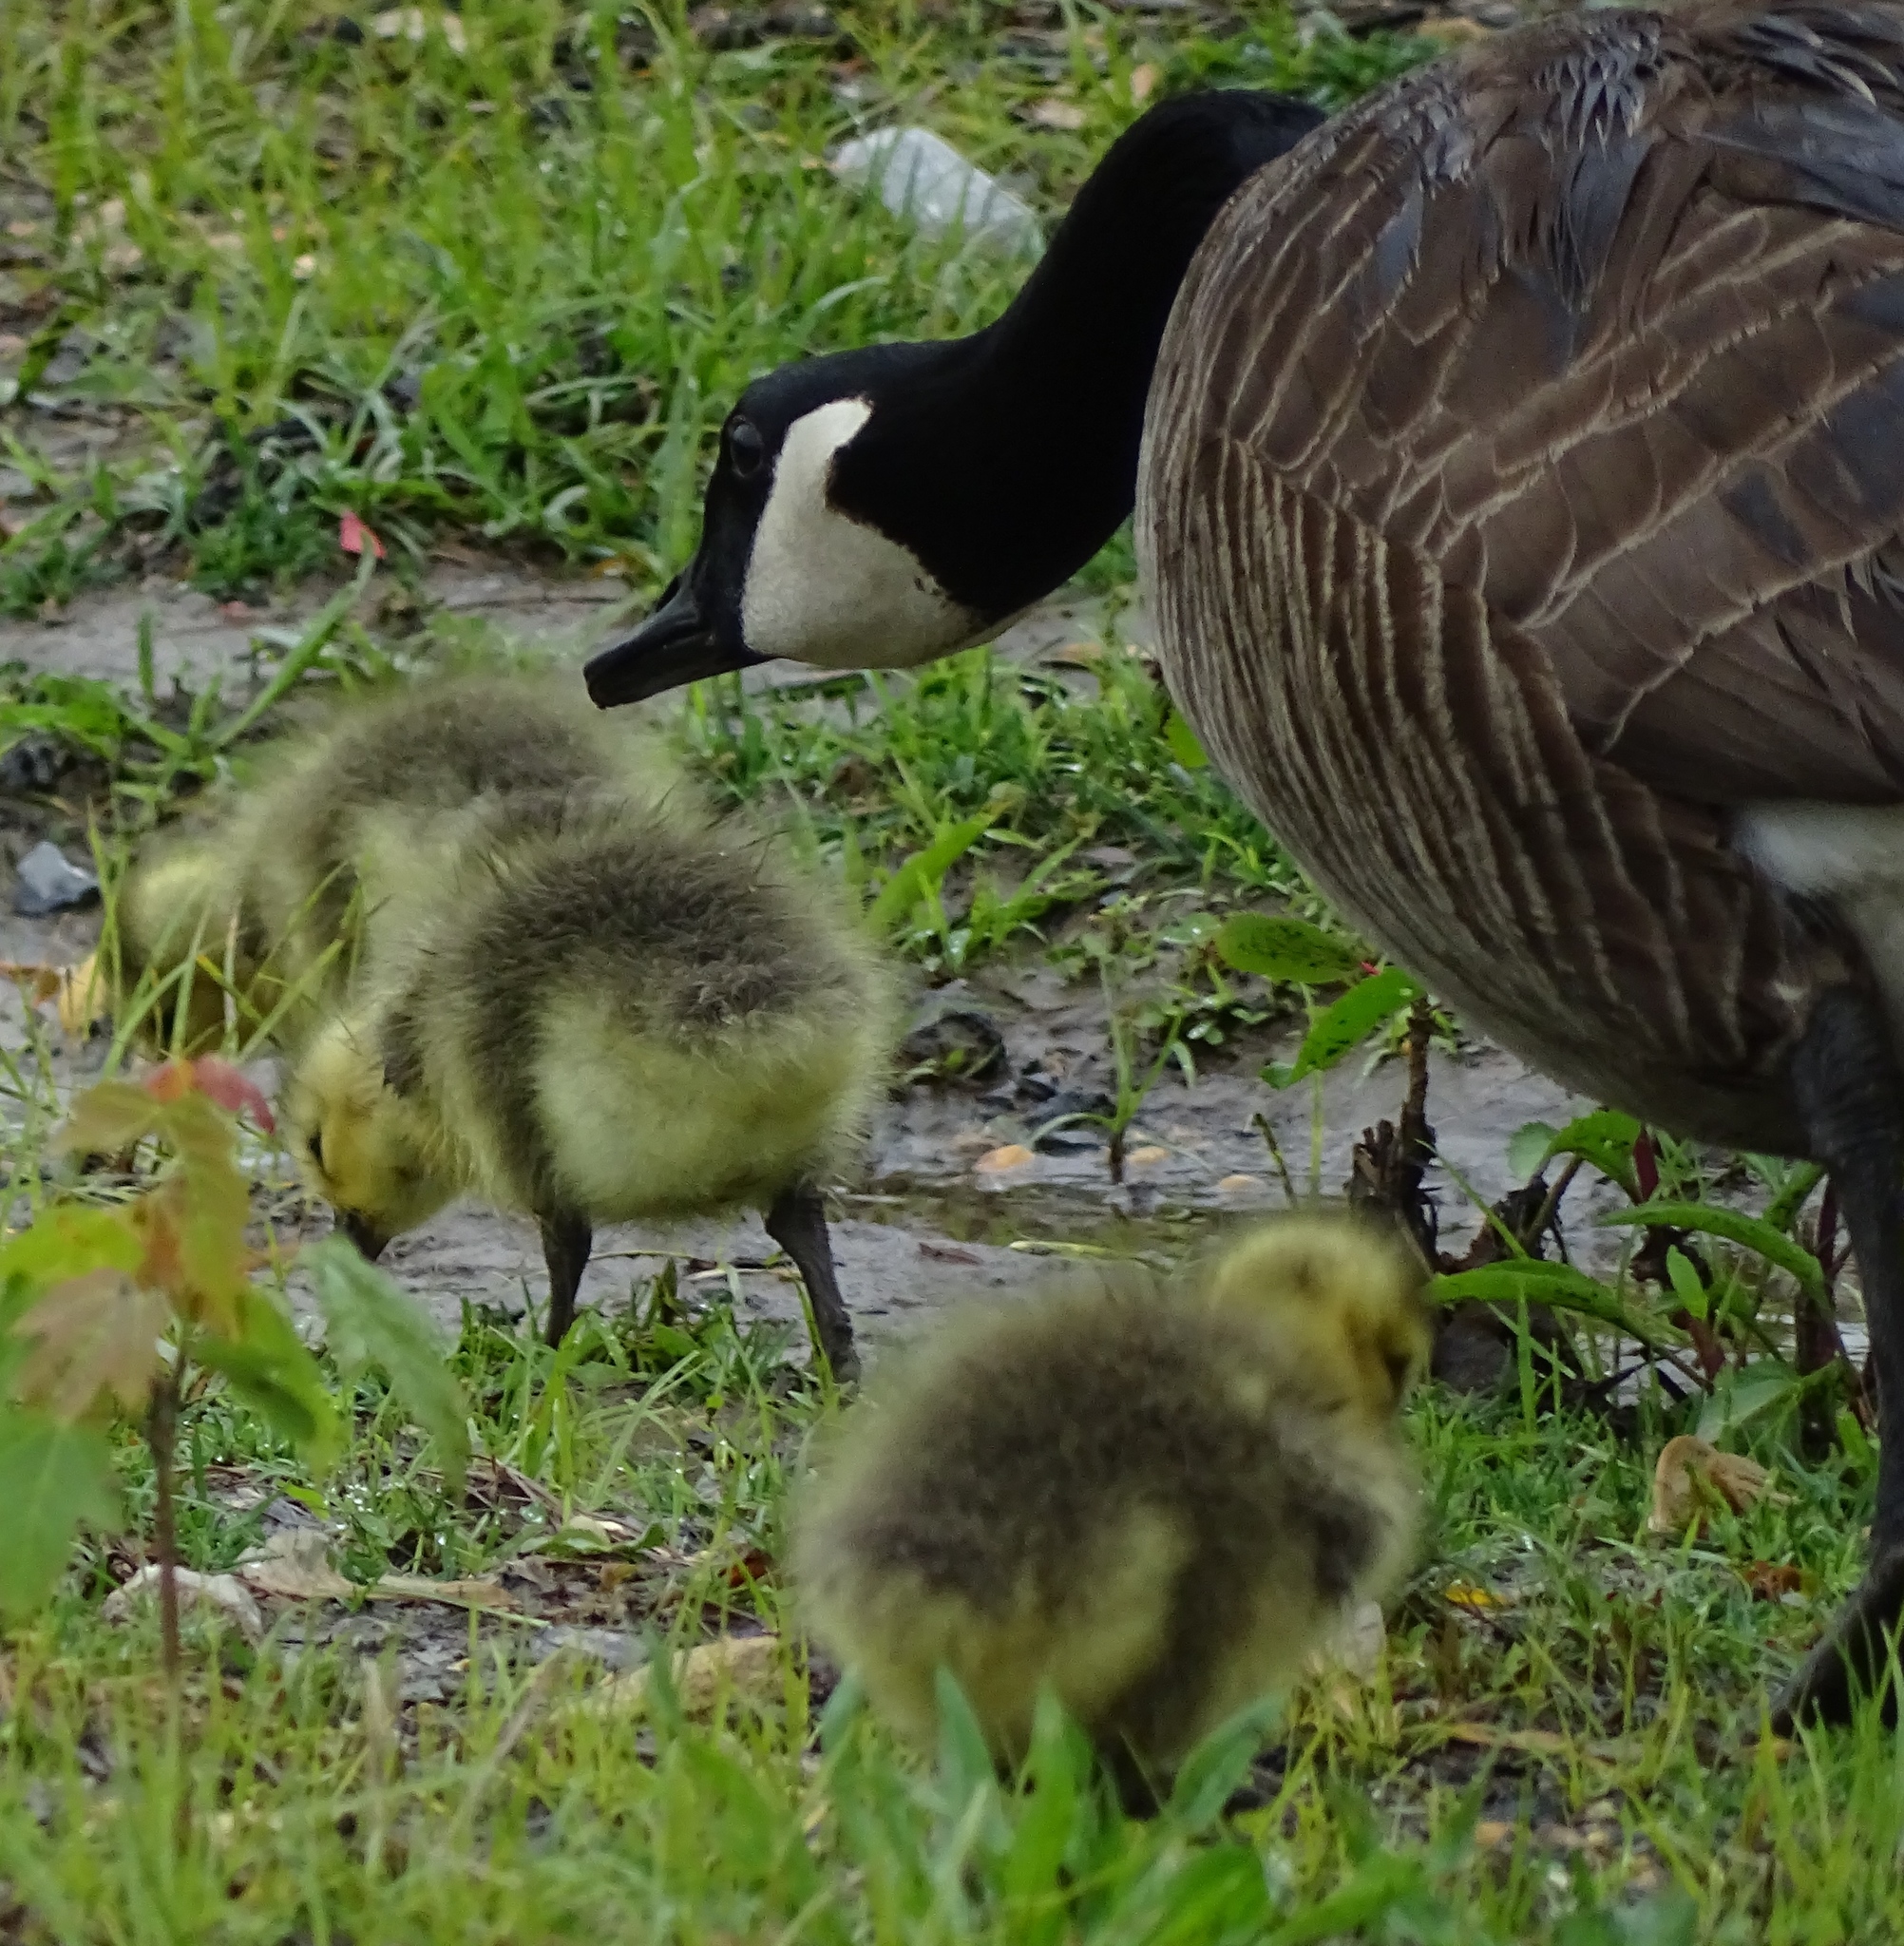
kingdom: Animalia
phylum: Chordata
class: Aves
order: Anseriformes
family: Anatidae
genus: Branta
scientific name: Branta canadensis
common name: Canada goose
